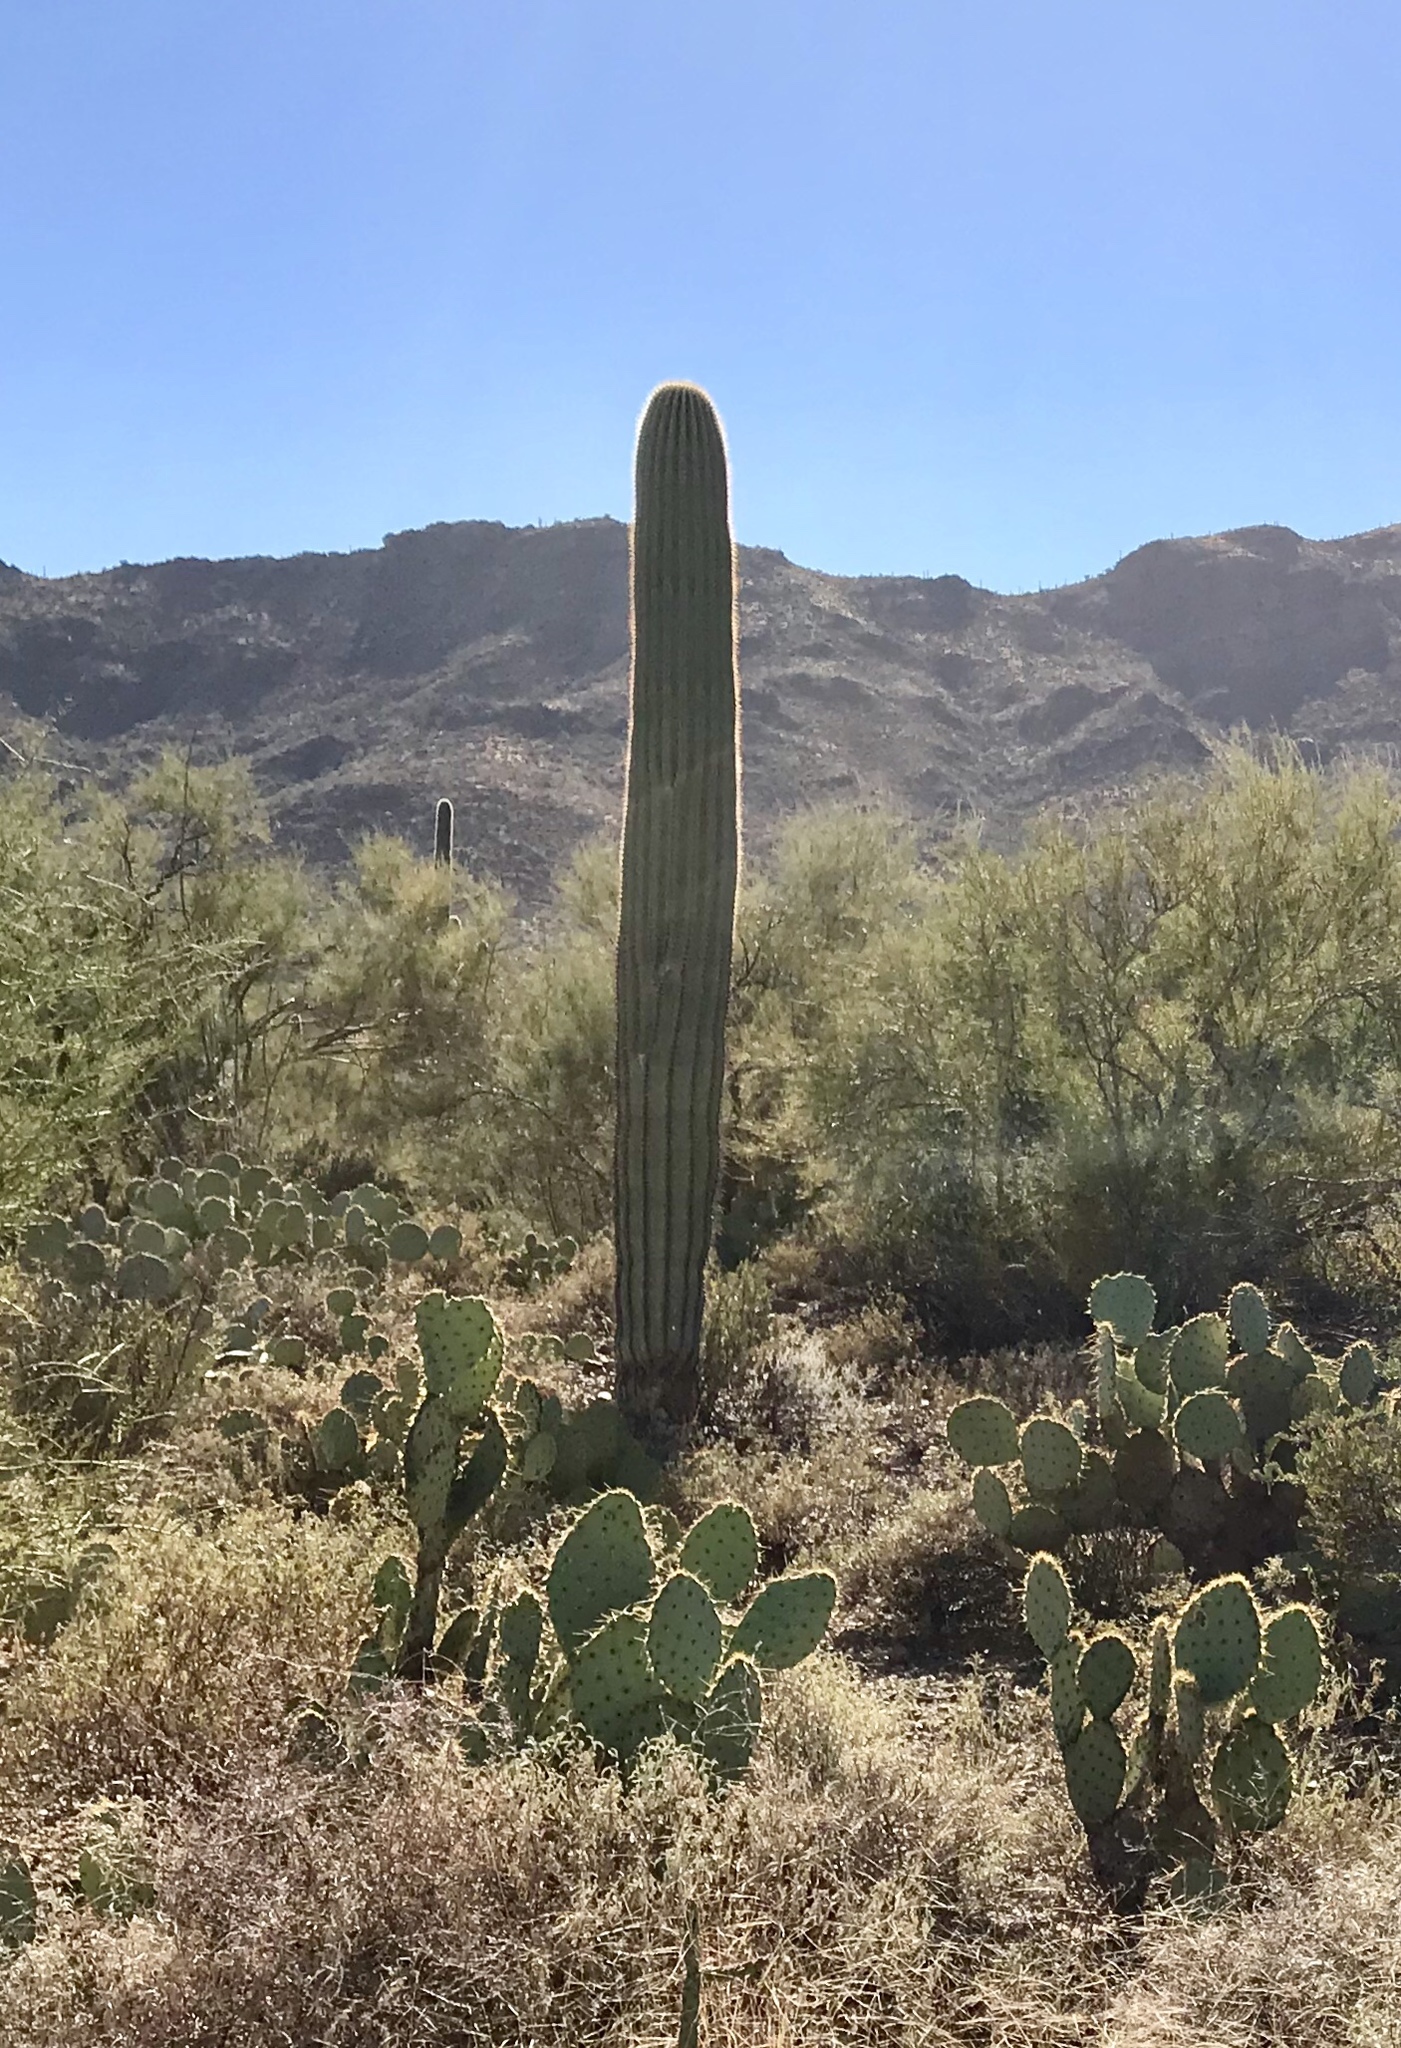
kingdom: Plantae
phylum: Tracheophyta
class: Magnoliopsida
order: Caryophyllales
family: Cactaceae
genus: Carnegiea
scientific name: Carnegiea gigantea
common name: Saguaro
